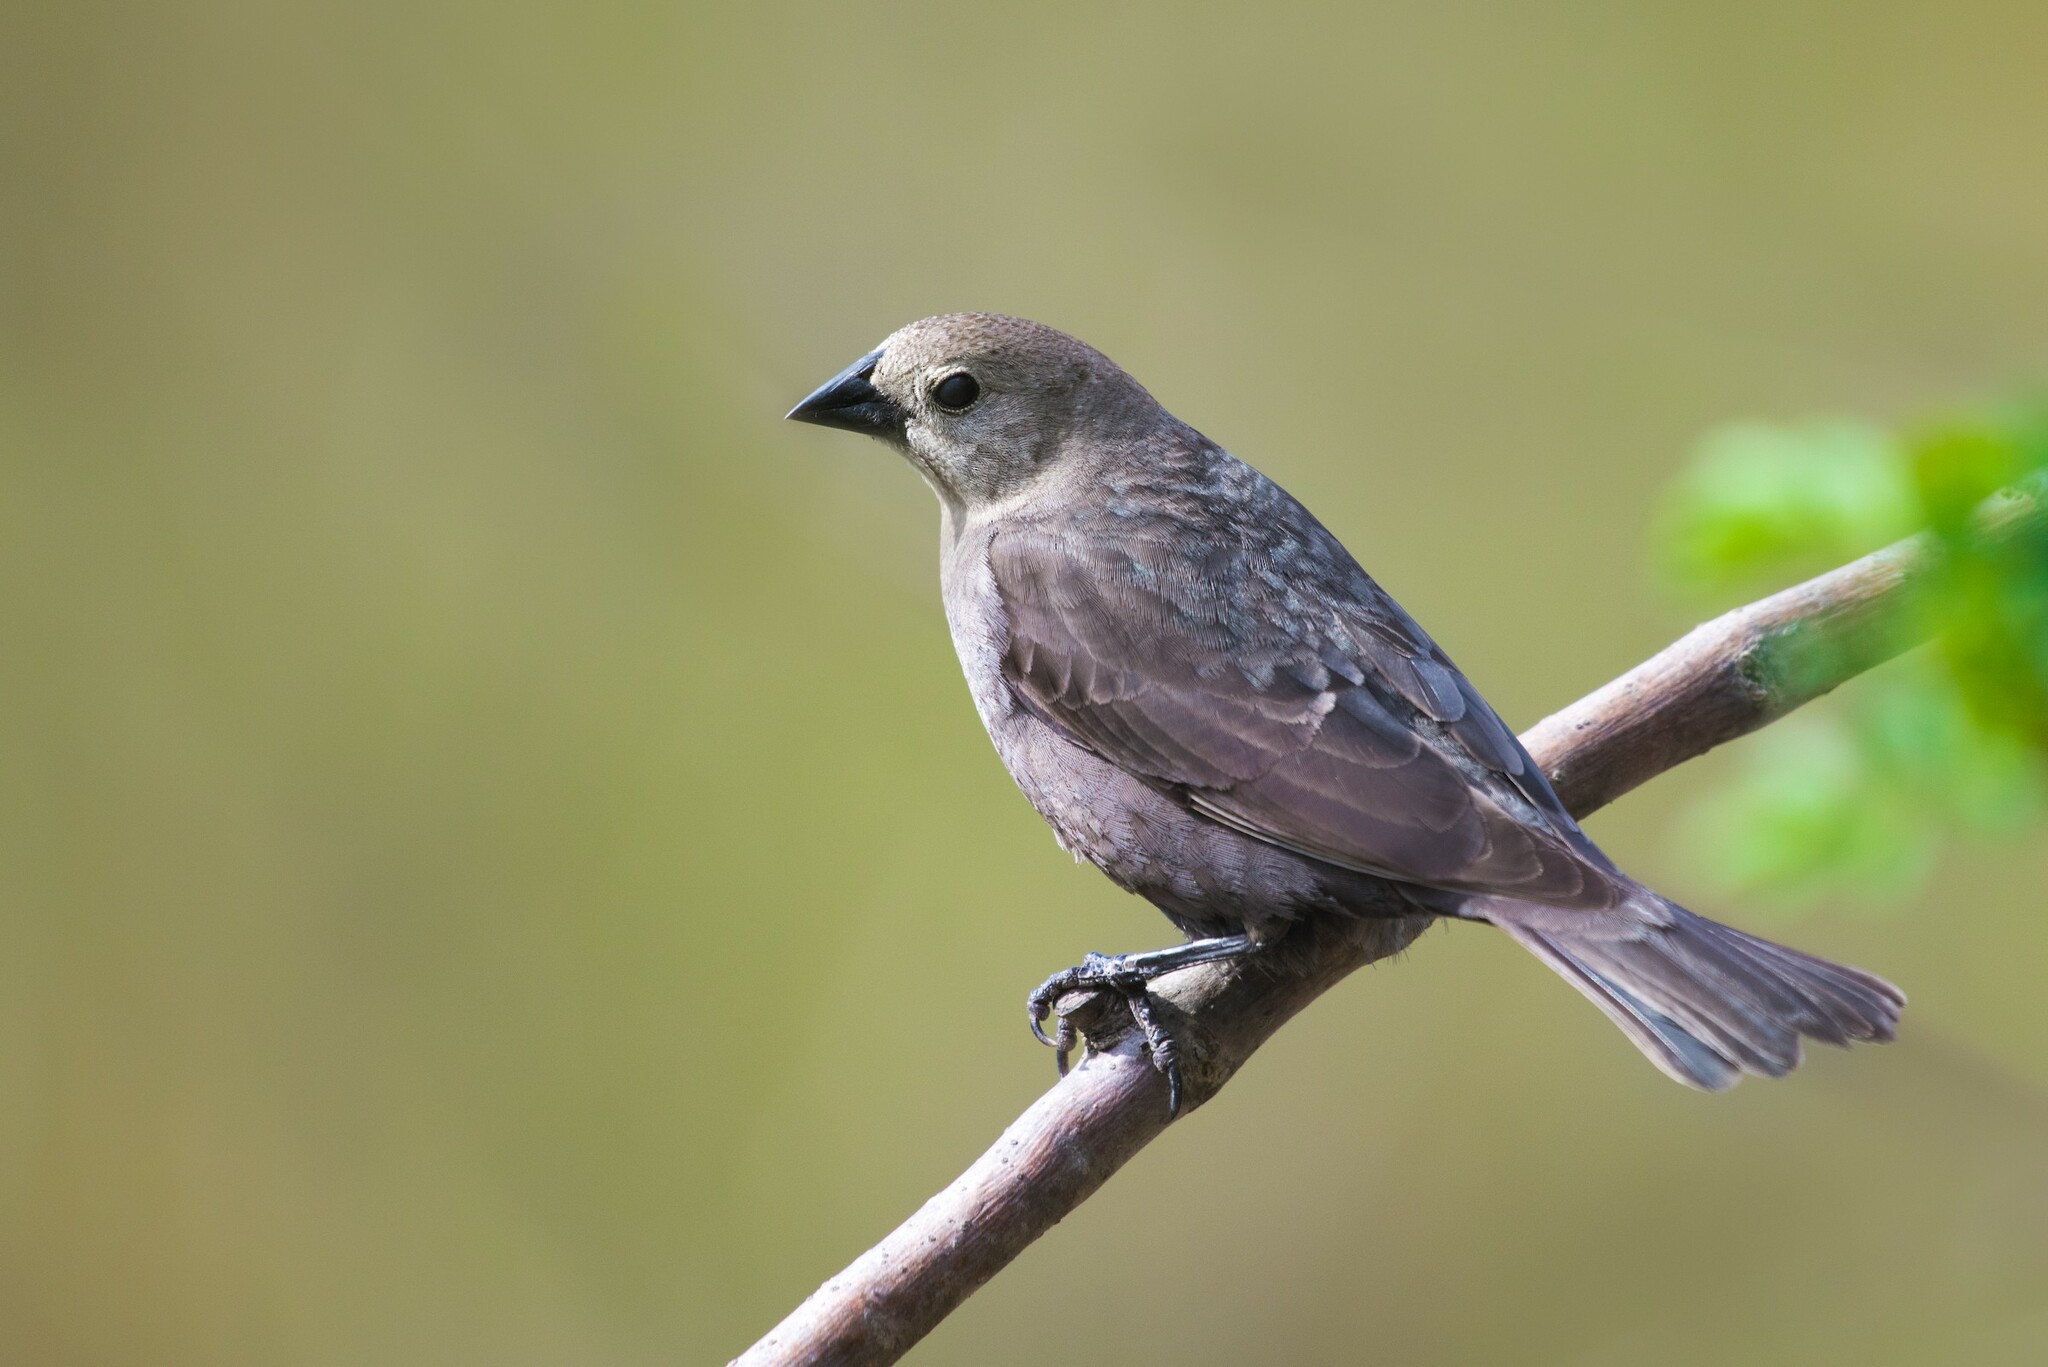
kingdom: Animalia
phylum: Chordata
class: Aves
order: Passeriformes
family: Icteridae
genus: Molothrus
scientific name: Molothrus ater
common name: Brown-headed cowbird
